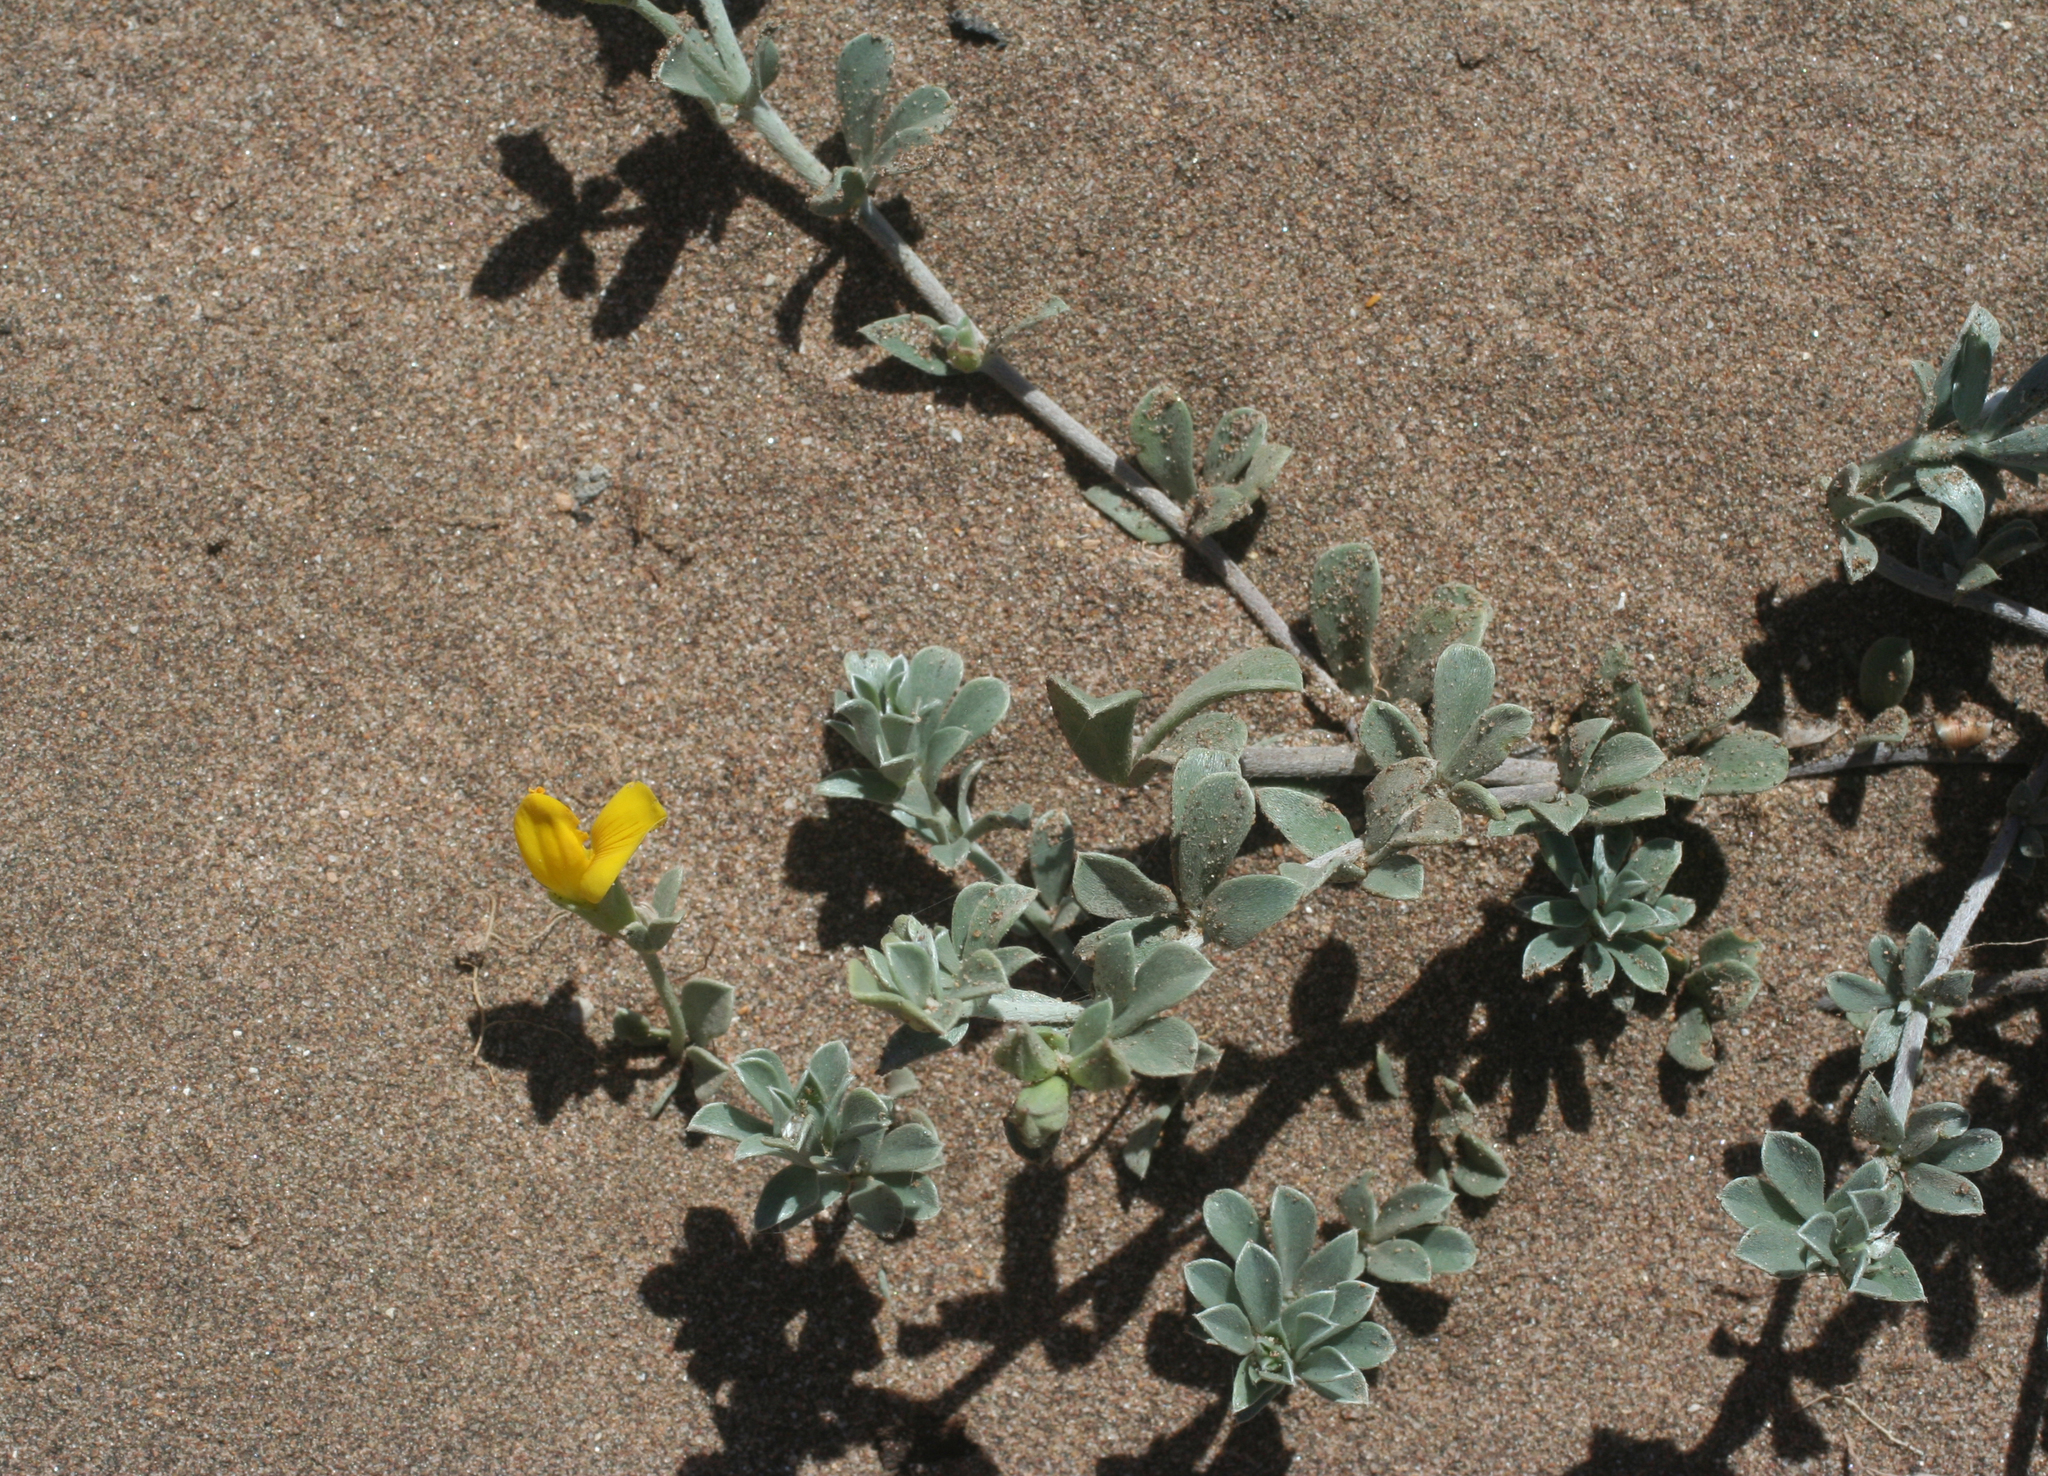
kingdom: Plantae
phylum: Tracheophyta
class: Magnoliopsida
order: Fabales
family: Fabaceae
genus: Lotus
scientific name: Lotus creticus
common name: Cretan bird's-foot trefoil
